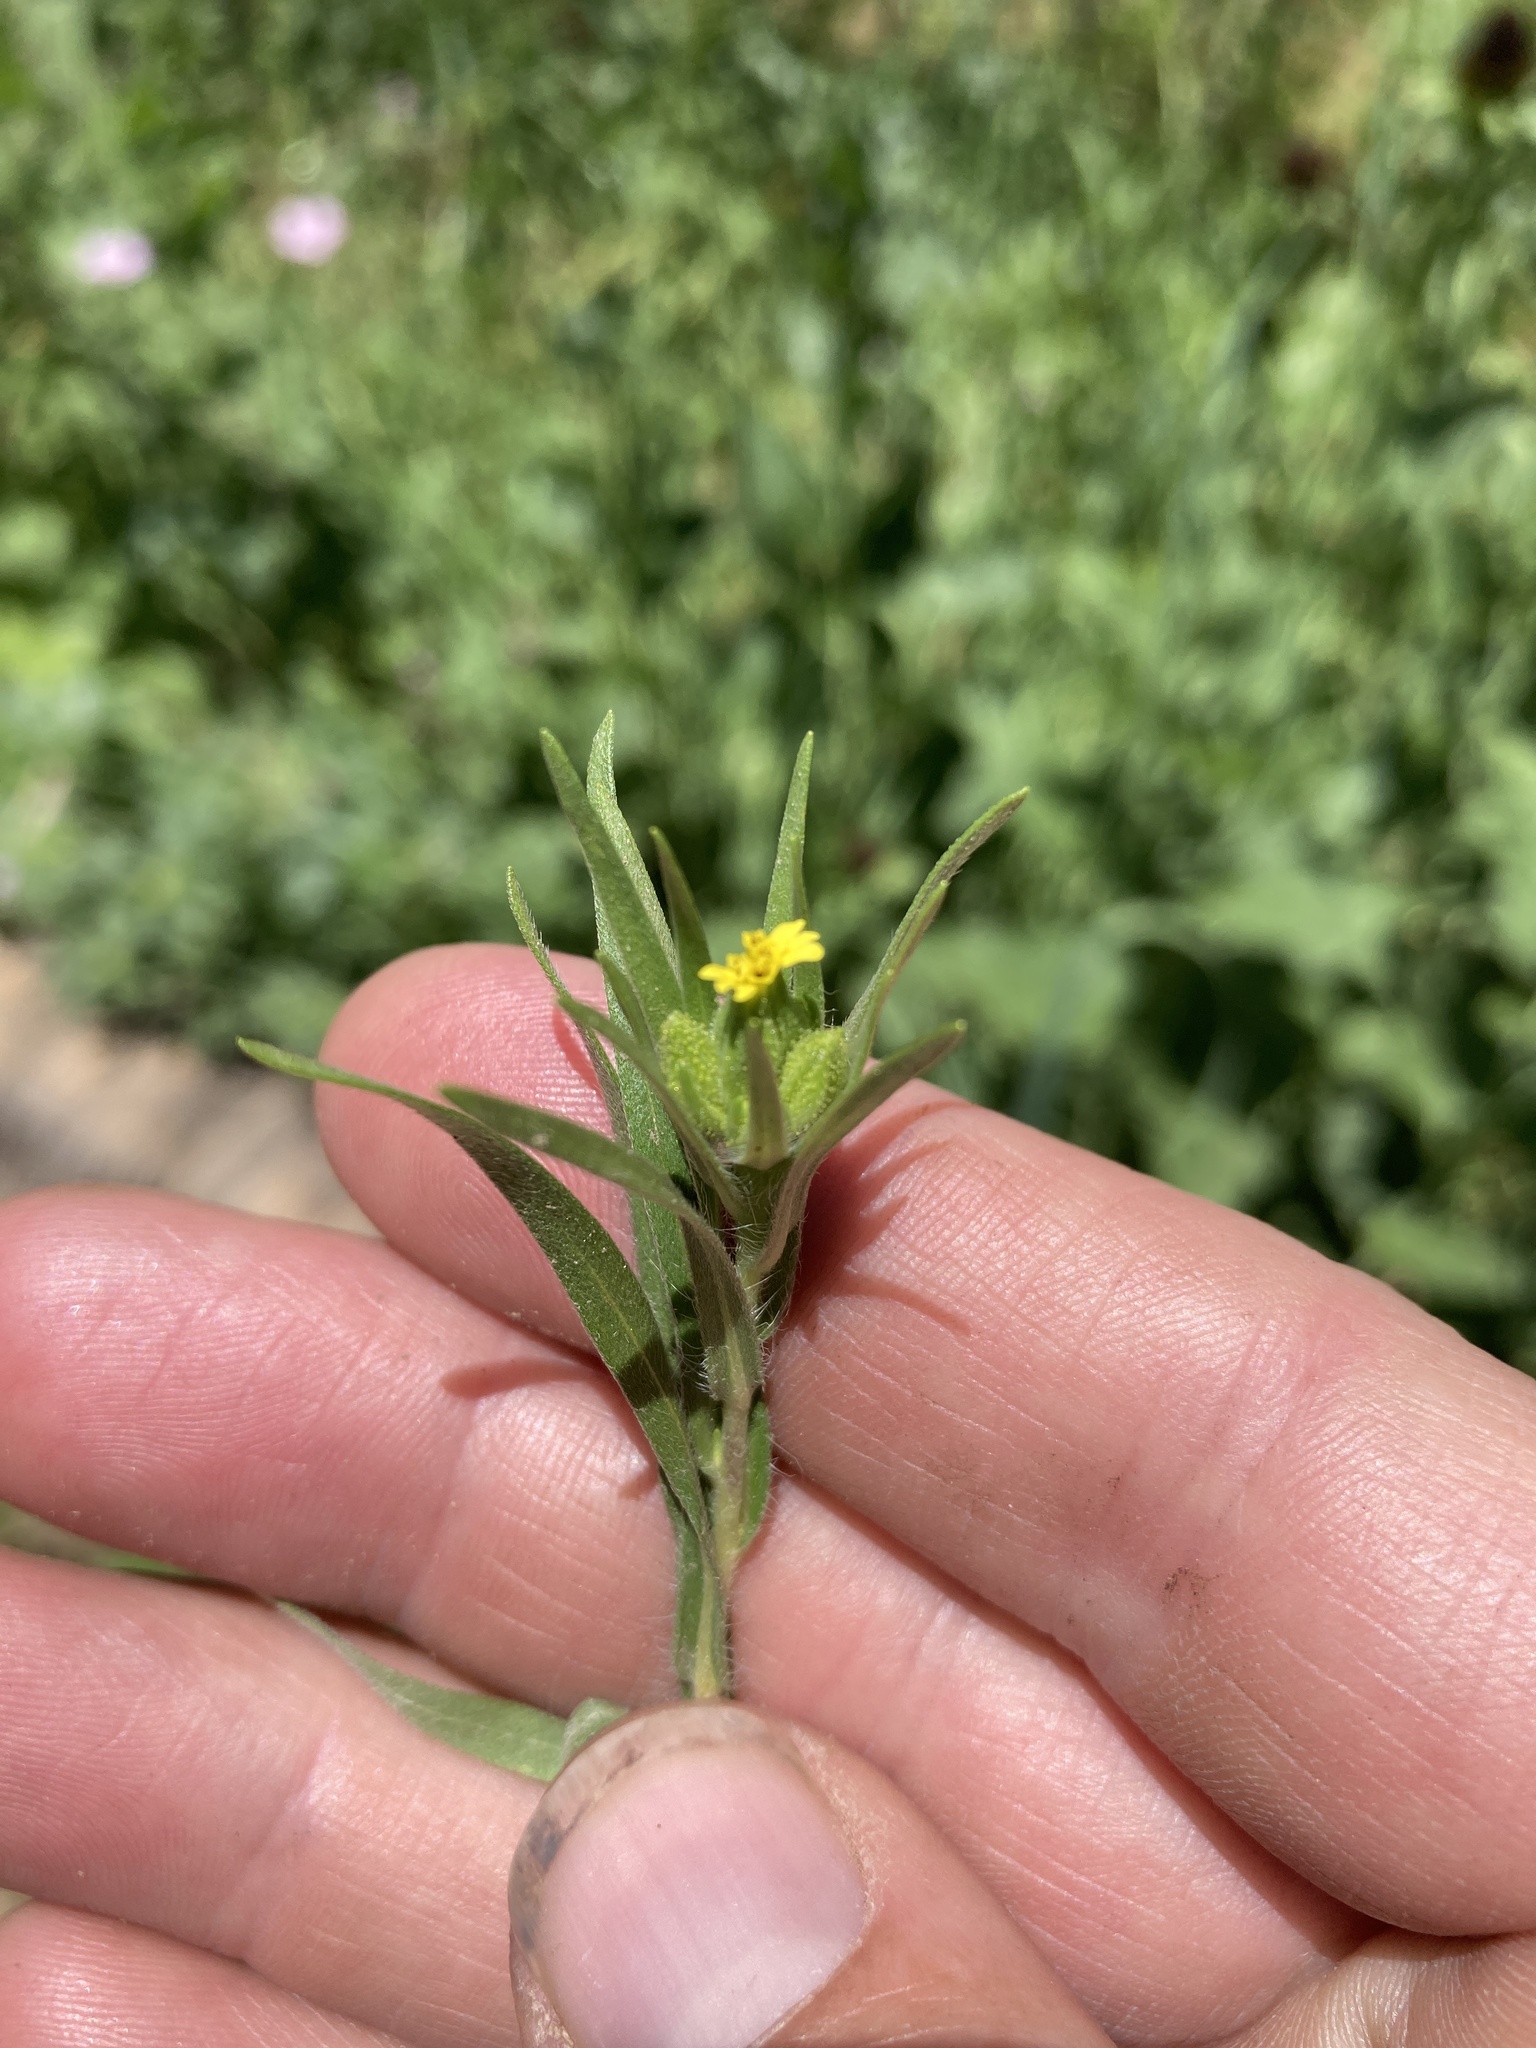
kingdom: Plantae
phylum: Tracheophyta
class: Magnoliopsida
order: Asterales
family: Asteraceae
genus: Madia
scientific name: Madia glomerata
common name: Mountain tarweed
